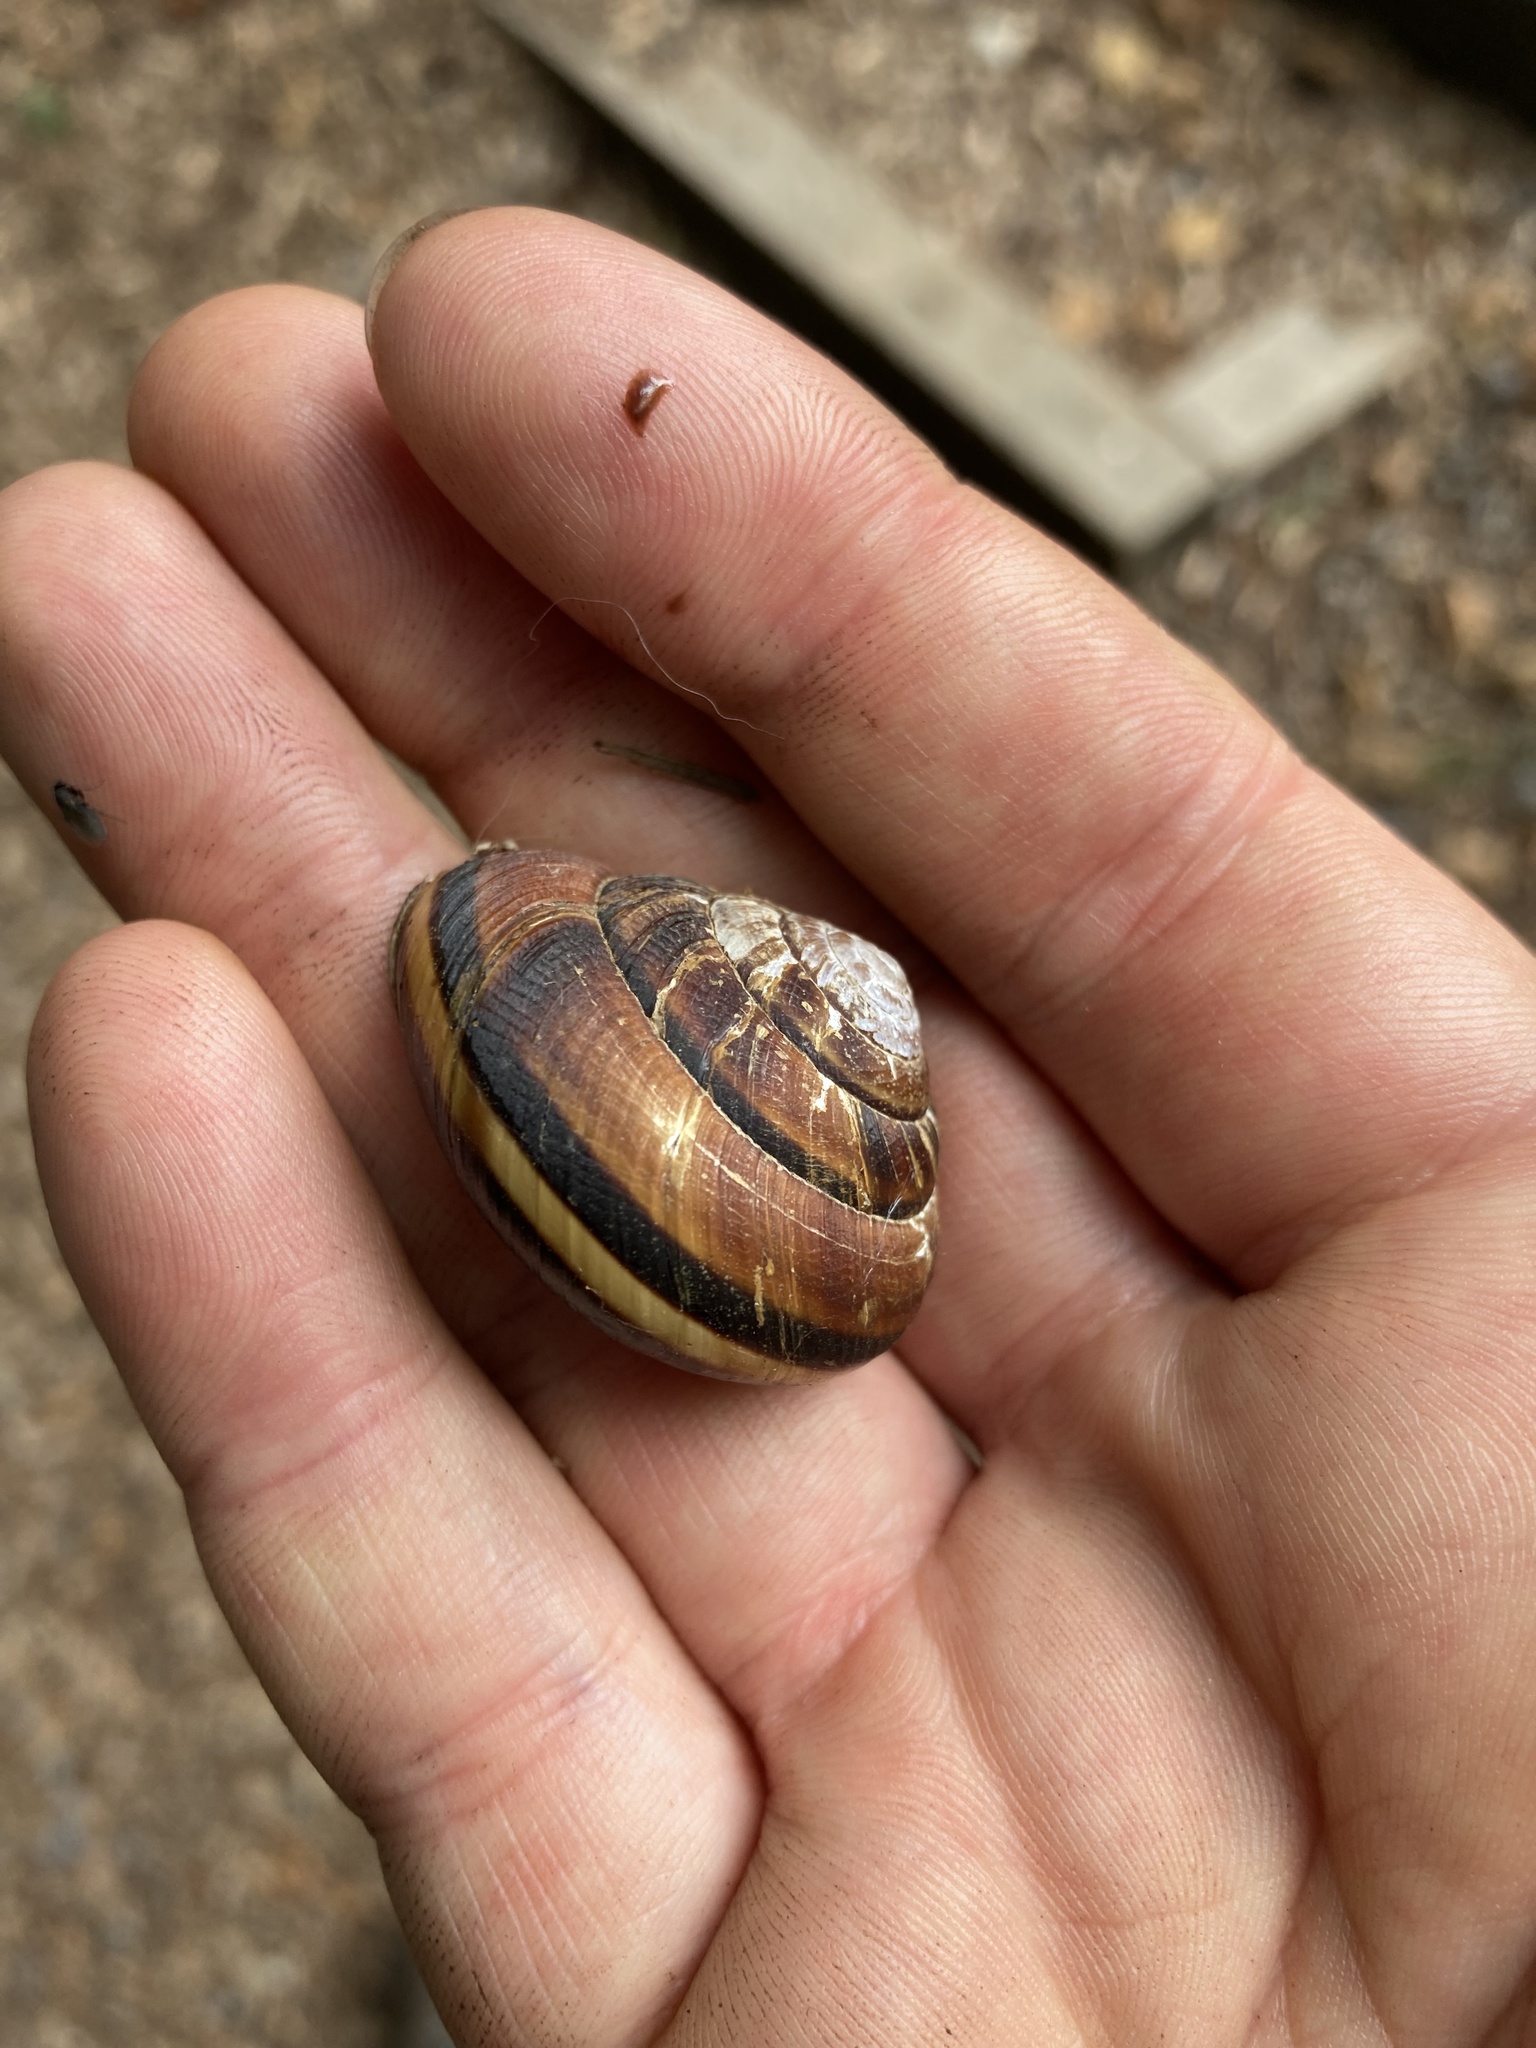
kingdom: Animalia
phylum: Mollusca
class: Gastropoda
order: Stylommatophora
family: Xanthonychidae
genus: Monadenia
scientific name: Monadenia fidelis
